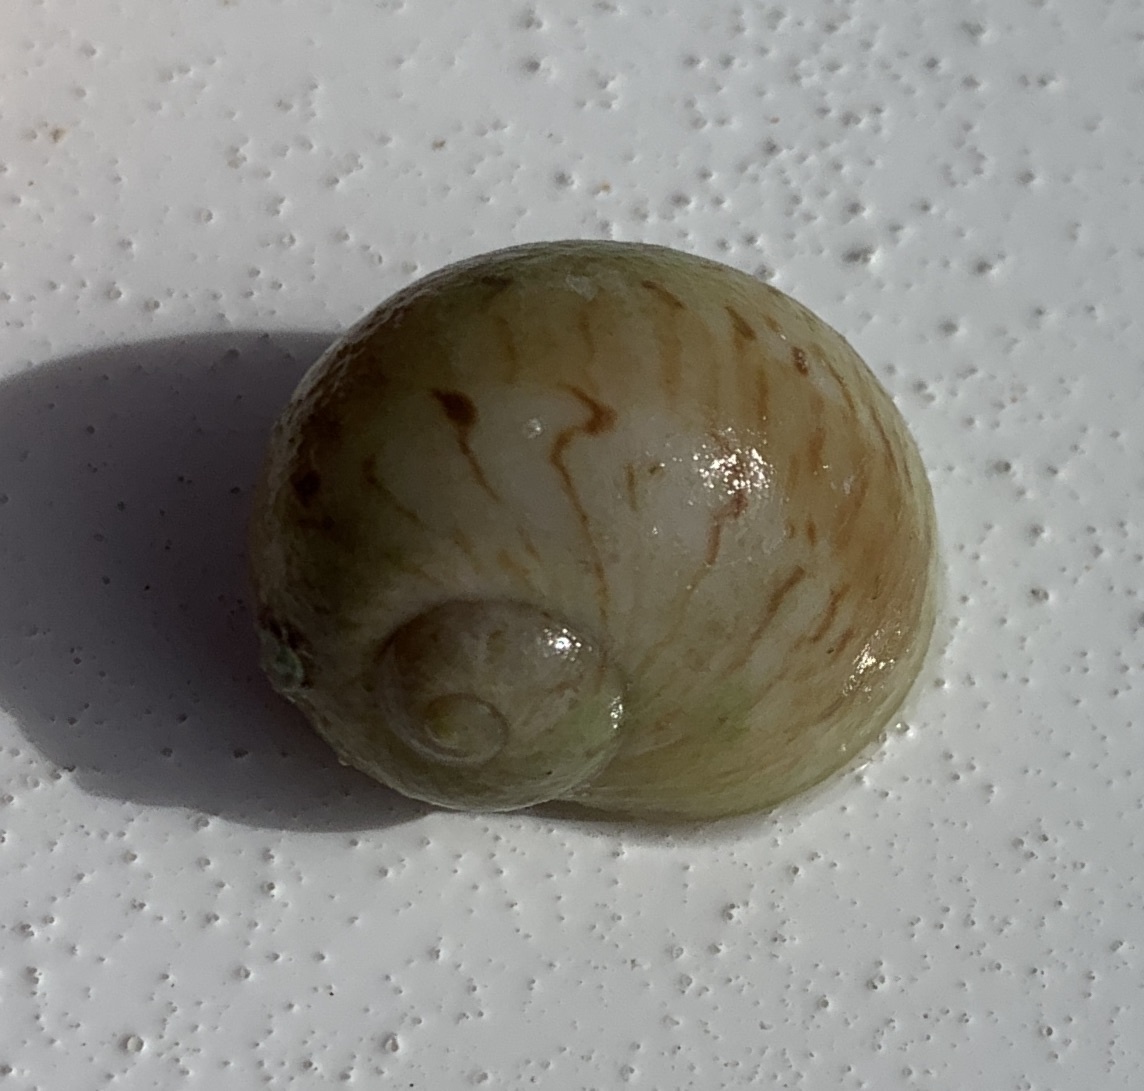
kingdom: Animalia
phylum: Mollusca
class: Gastropoda
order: Littorinimorpha
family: Naticidae
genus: Naticarius
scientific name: Naticarius canrena
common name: Colorful moonsnail
